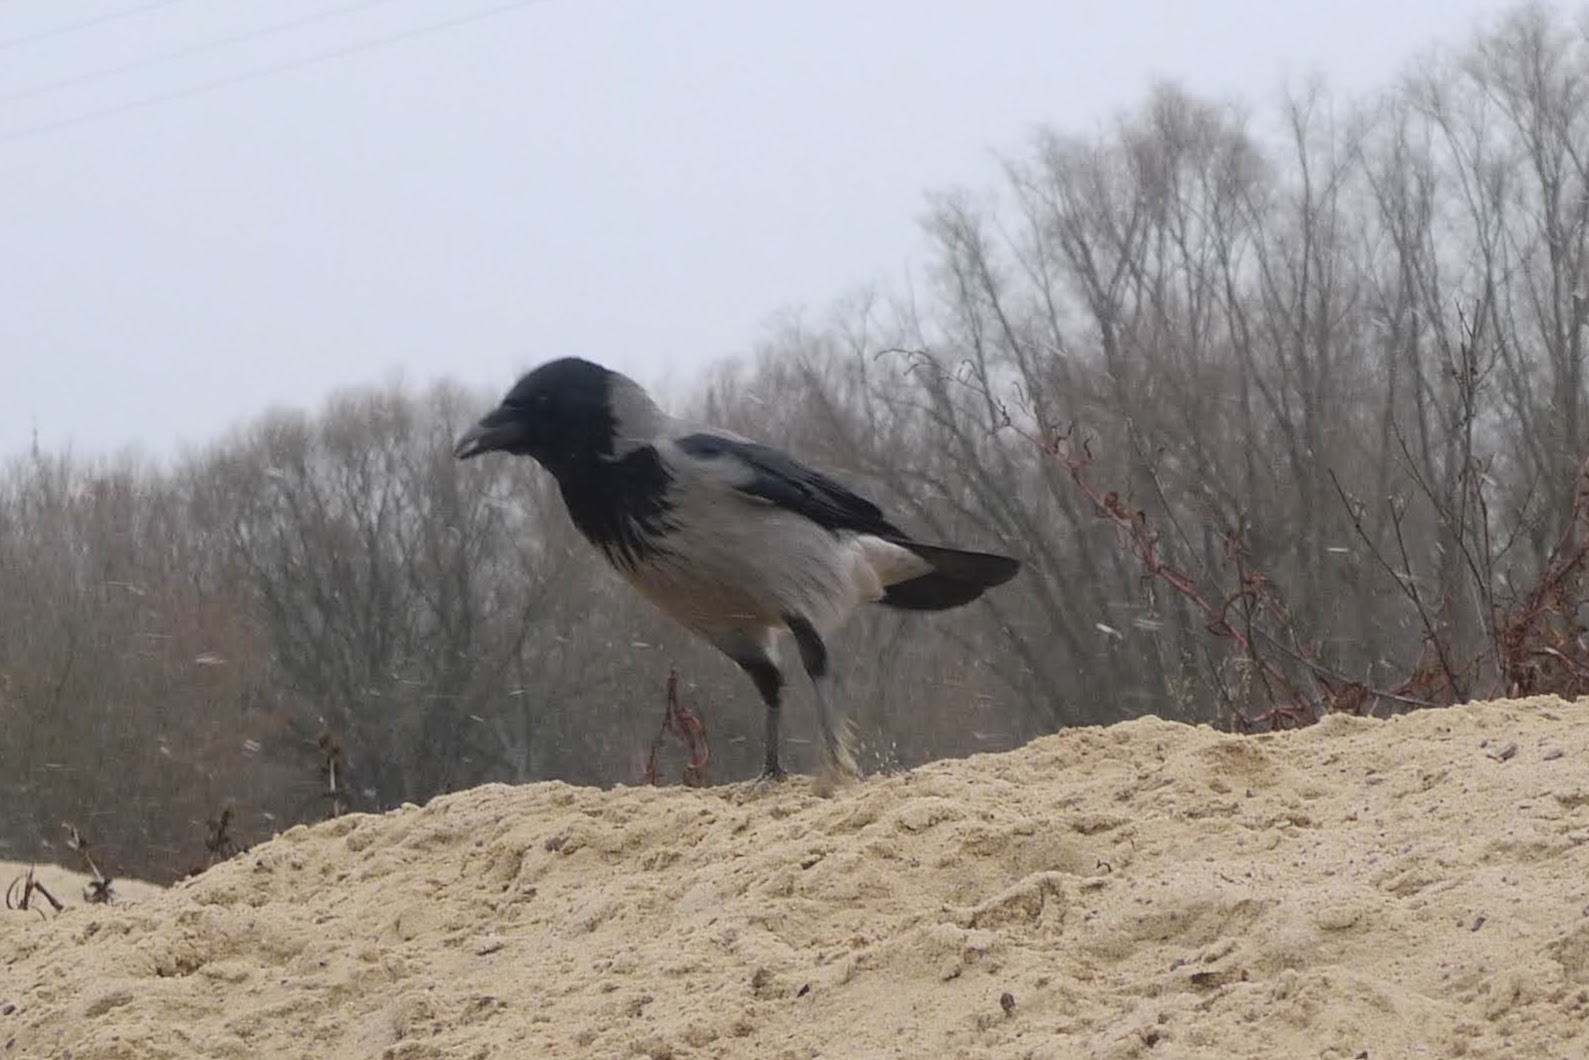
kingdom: Animalia
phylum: Chordata
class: Aves
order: Passeriformes
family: Corvidae
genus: Corvus
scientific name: Corvus cornix
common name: Hooded crow
